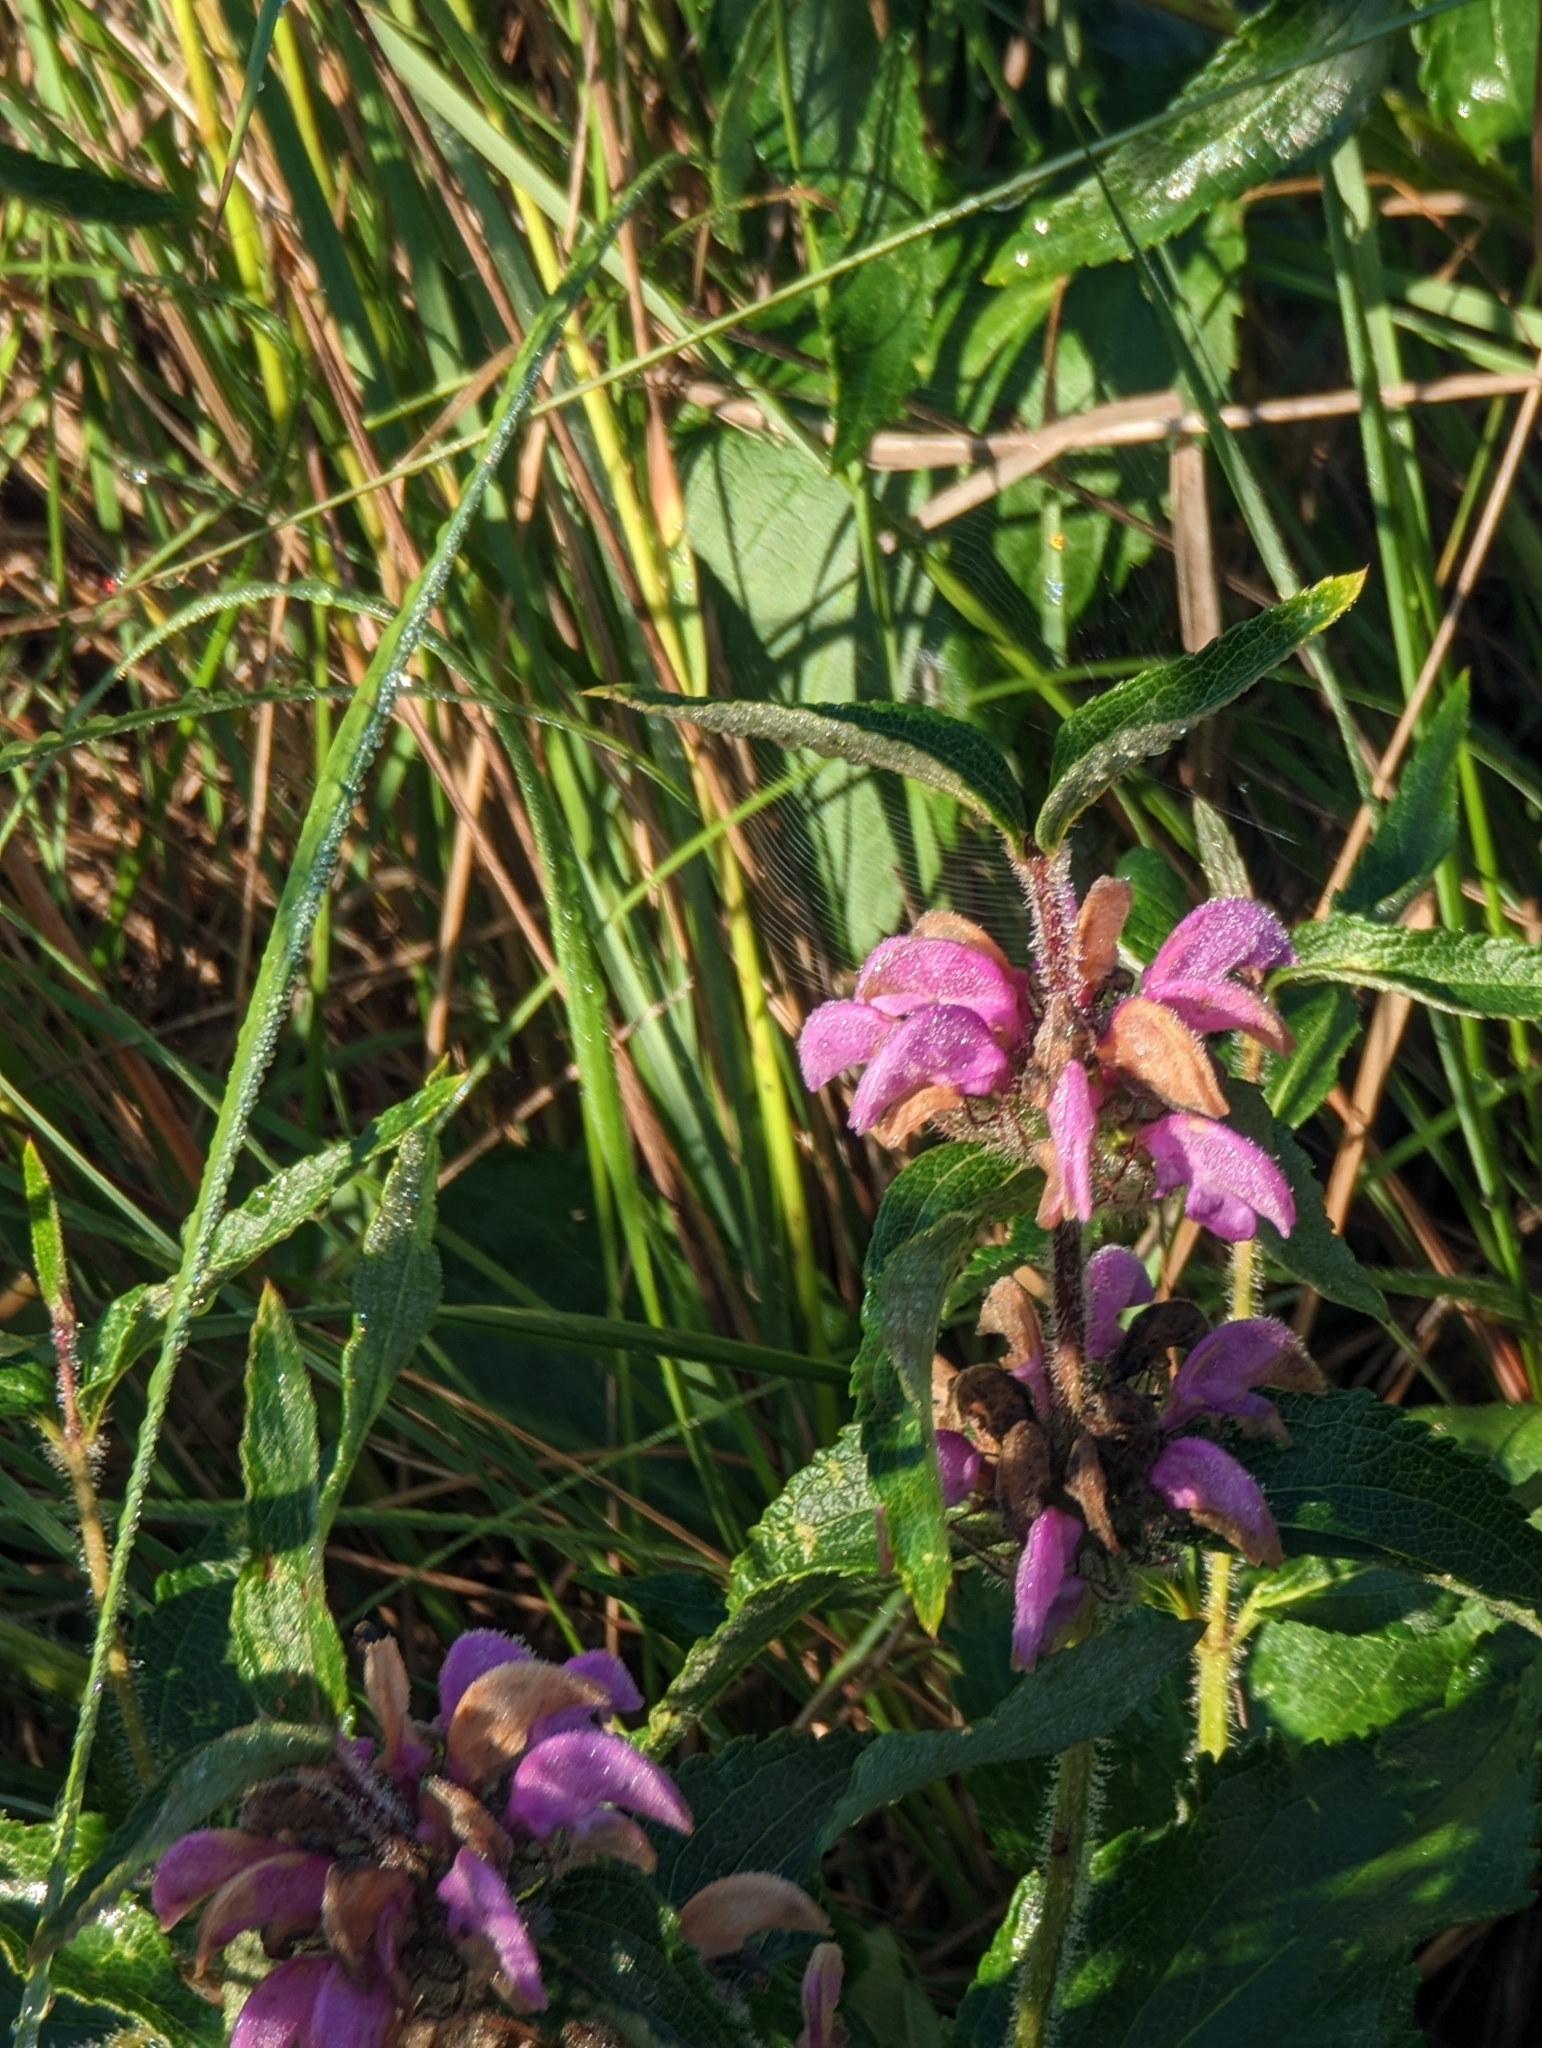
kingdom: Plantae
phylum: Tracheophyta
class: Magnoliopsida
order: Lamiales
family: Lamiaceae
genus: Phlomis
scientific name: Phlomis herba-venti
